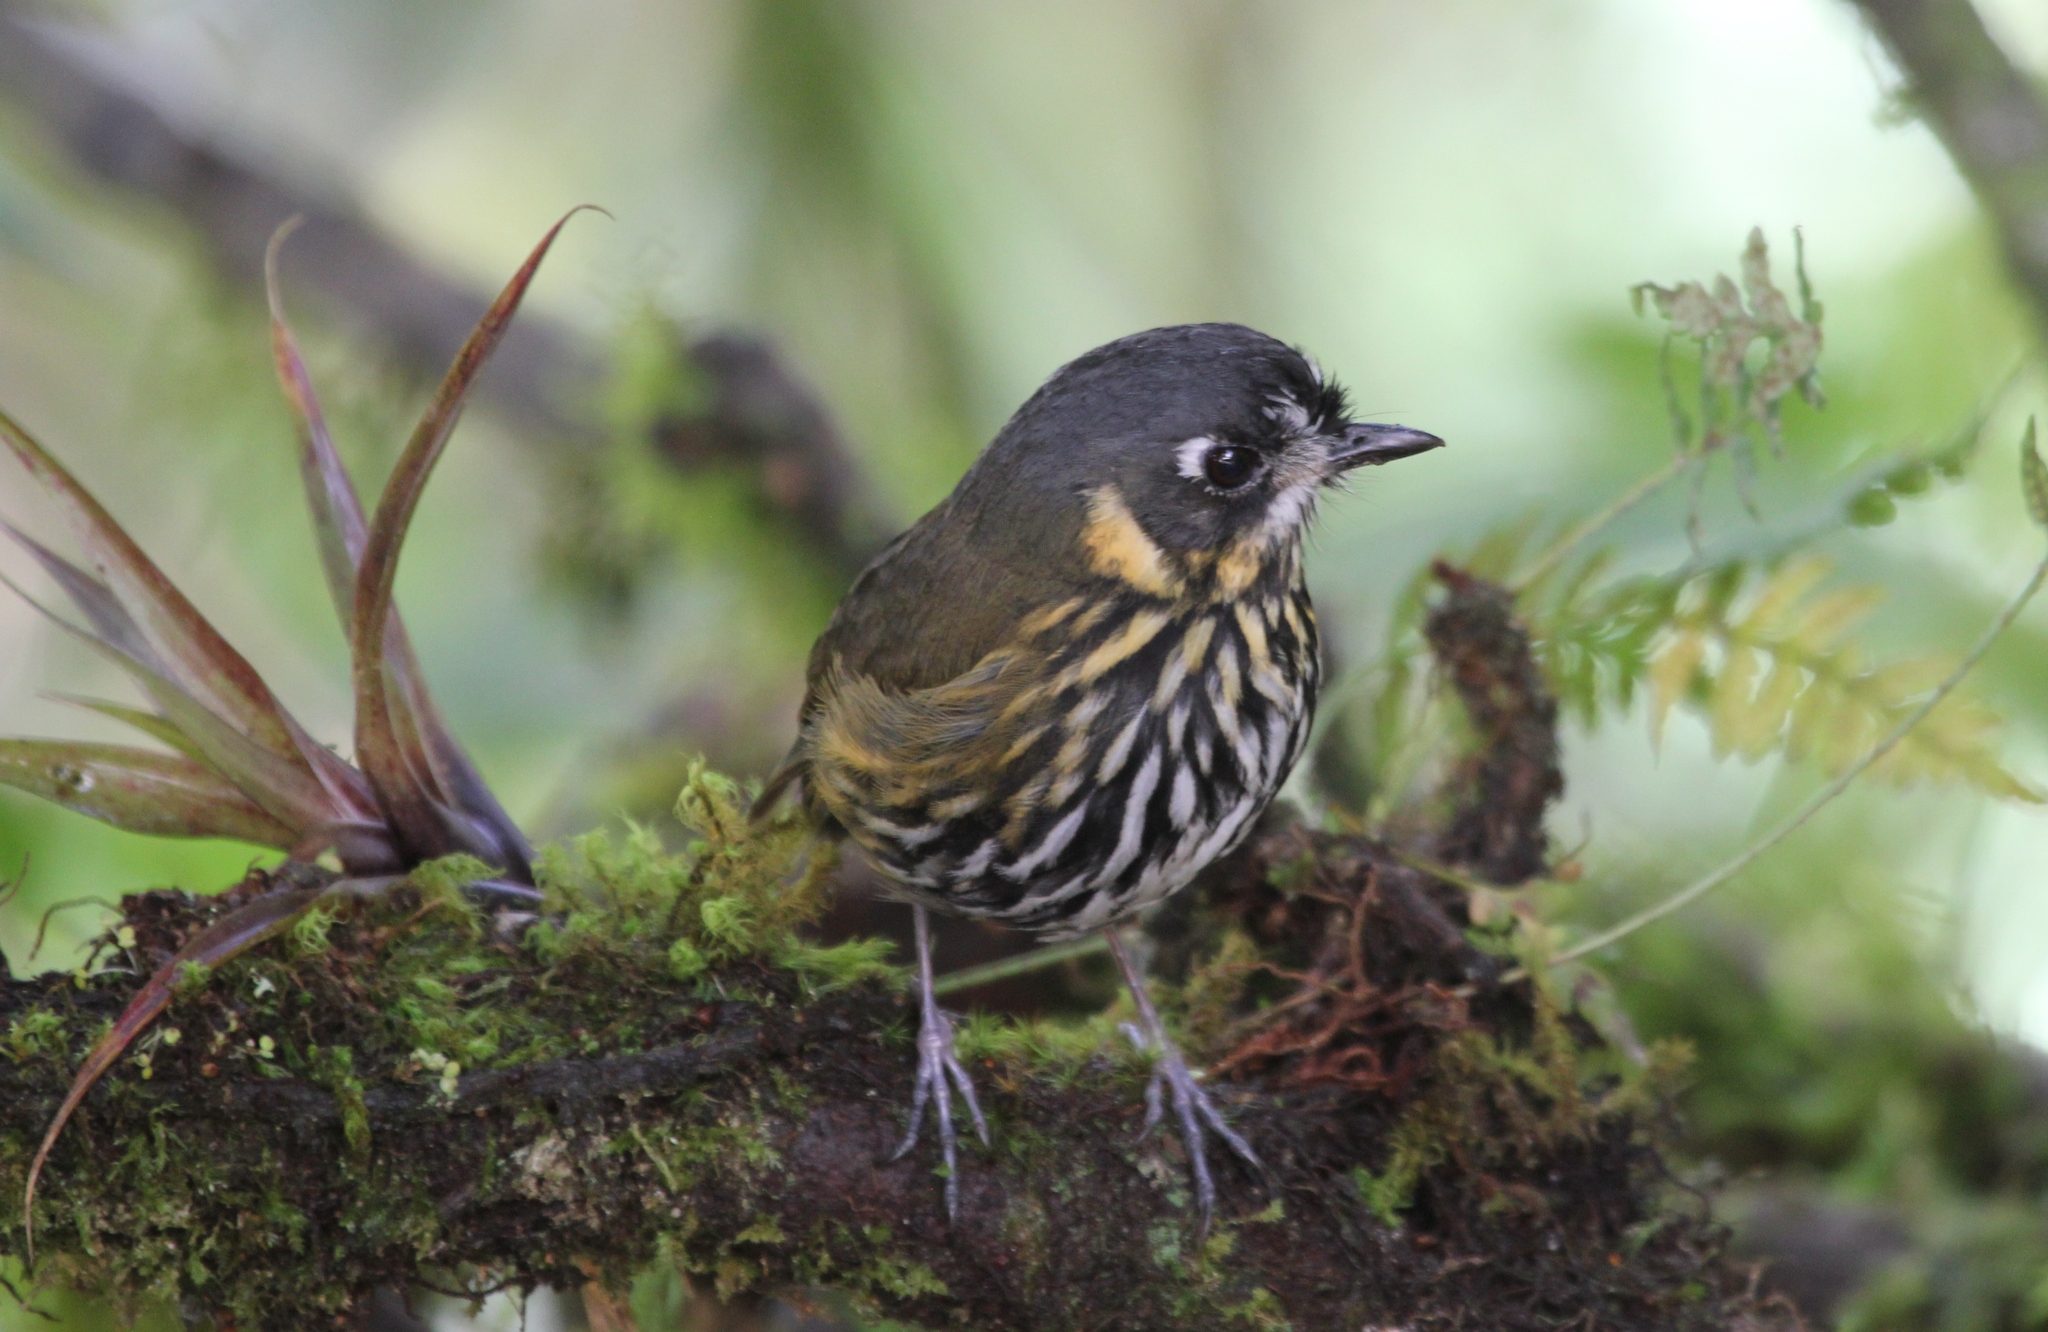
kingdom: Animalia
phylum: Chordata
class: Aves
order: Passeriformes
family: Grallariidae
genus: Grallaricula
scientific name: Grallaricula lineifrons
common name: Crescent-faced antpitta
